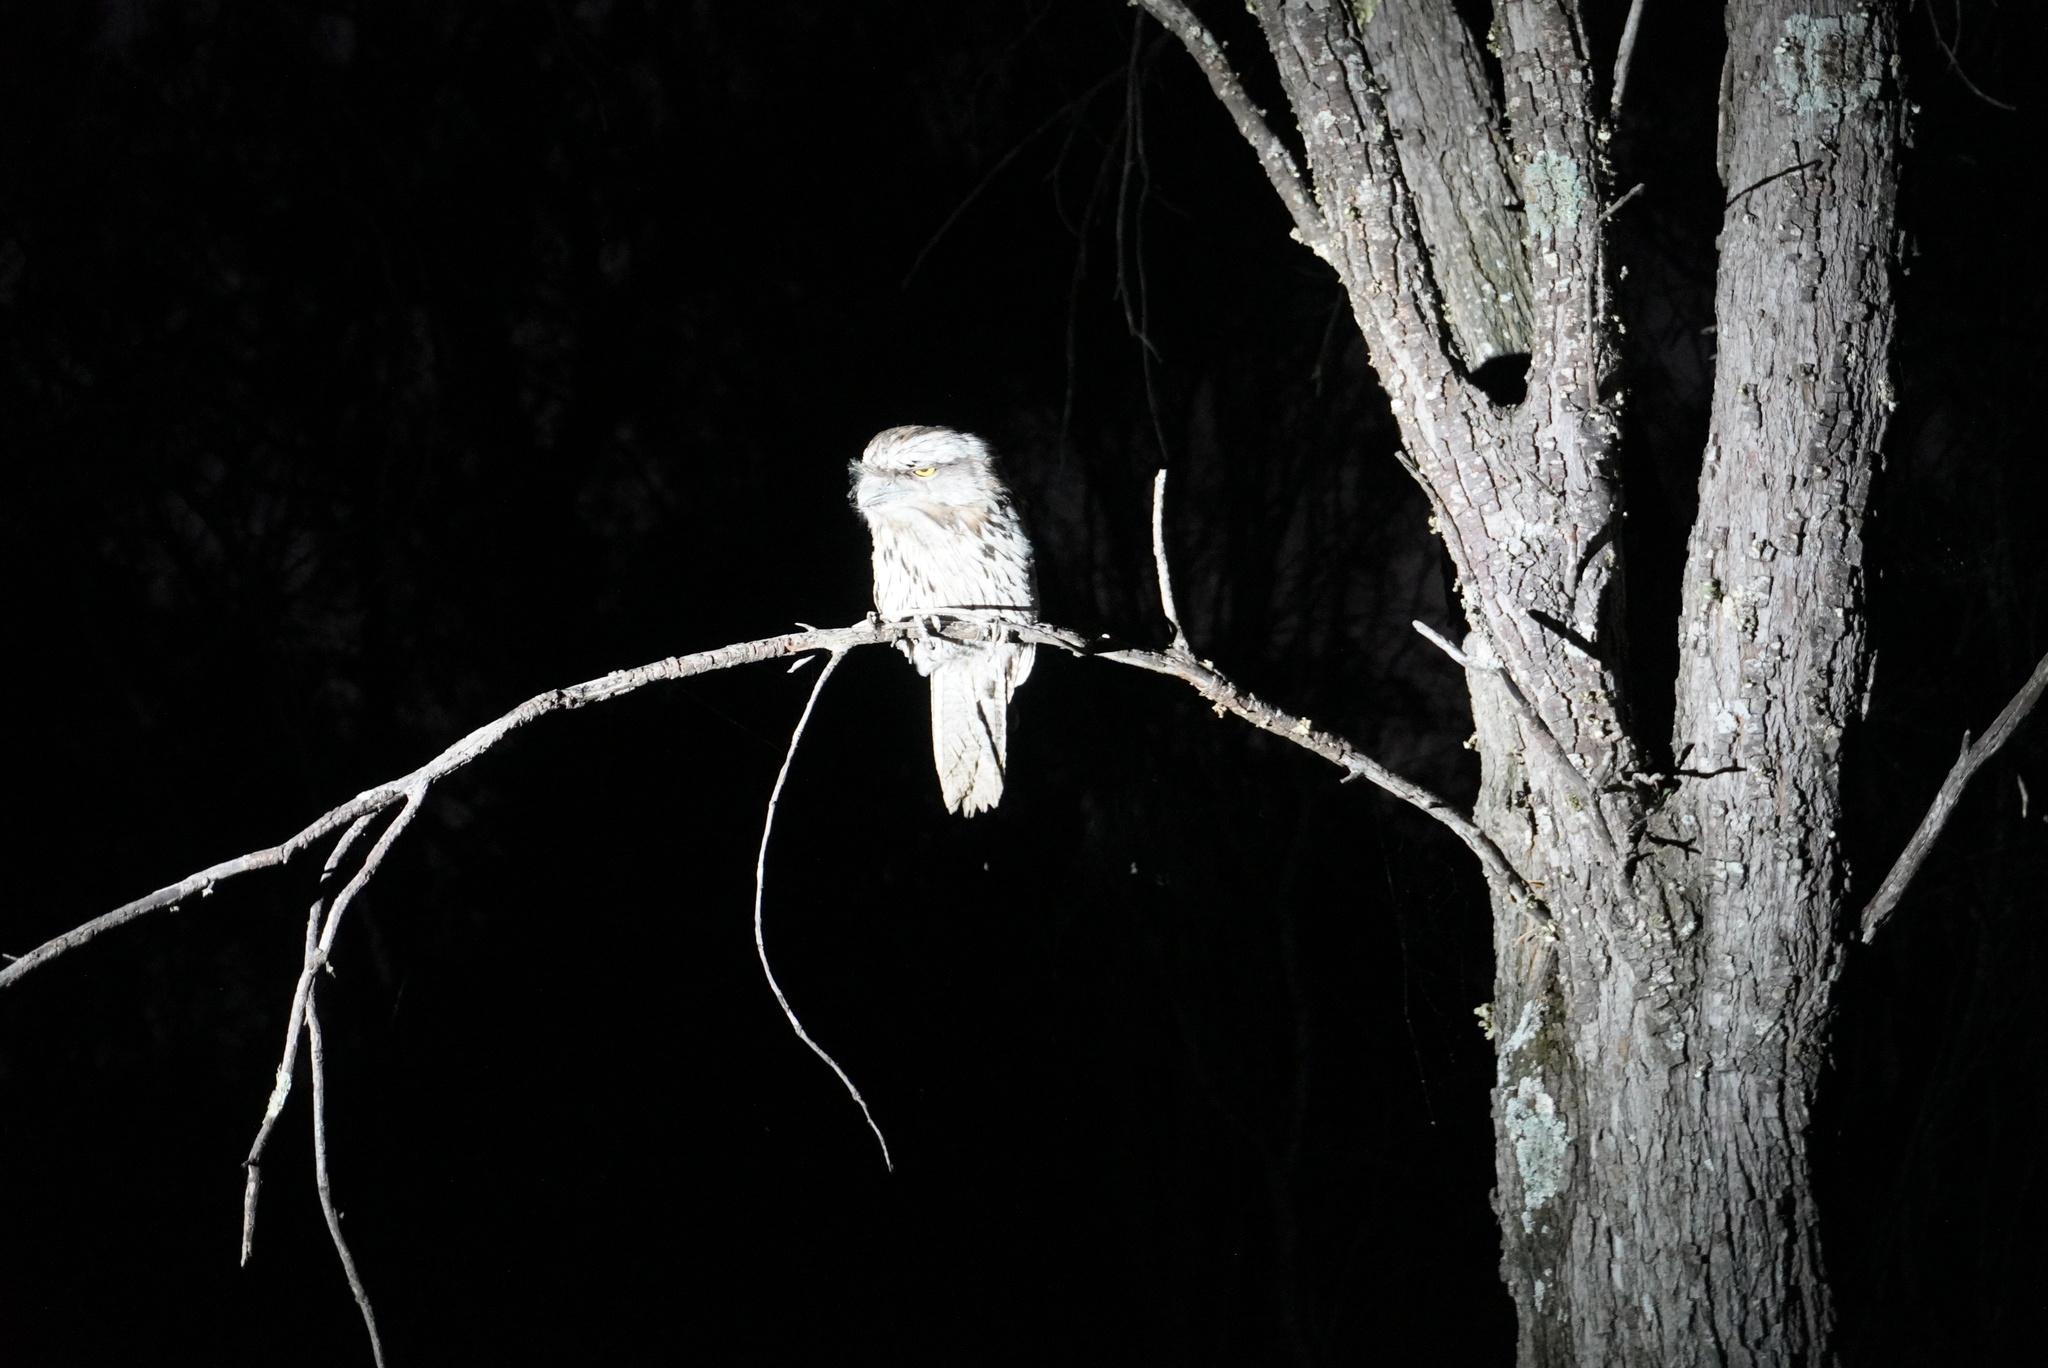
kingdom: Animalia
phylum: Chordata
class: Aves
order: Caprimulgiformes
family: Podargidae
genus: Podargus
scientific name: Podargus strigoides
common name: Tawny frogmouth
